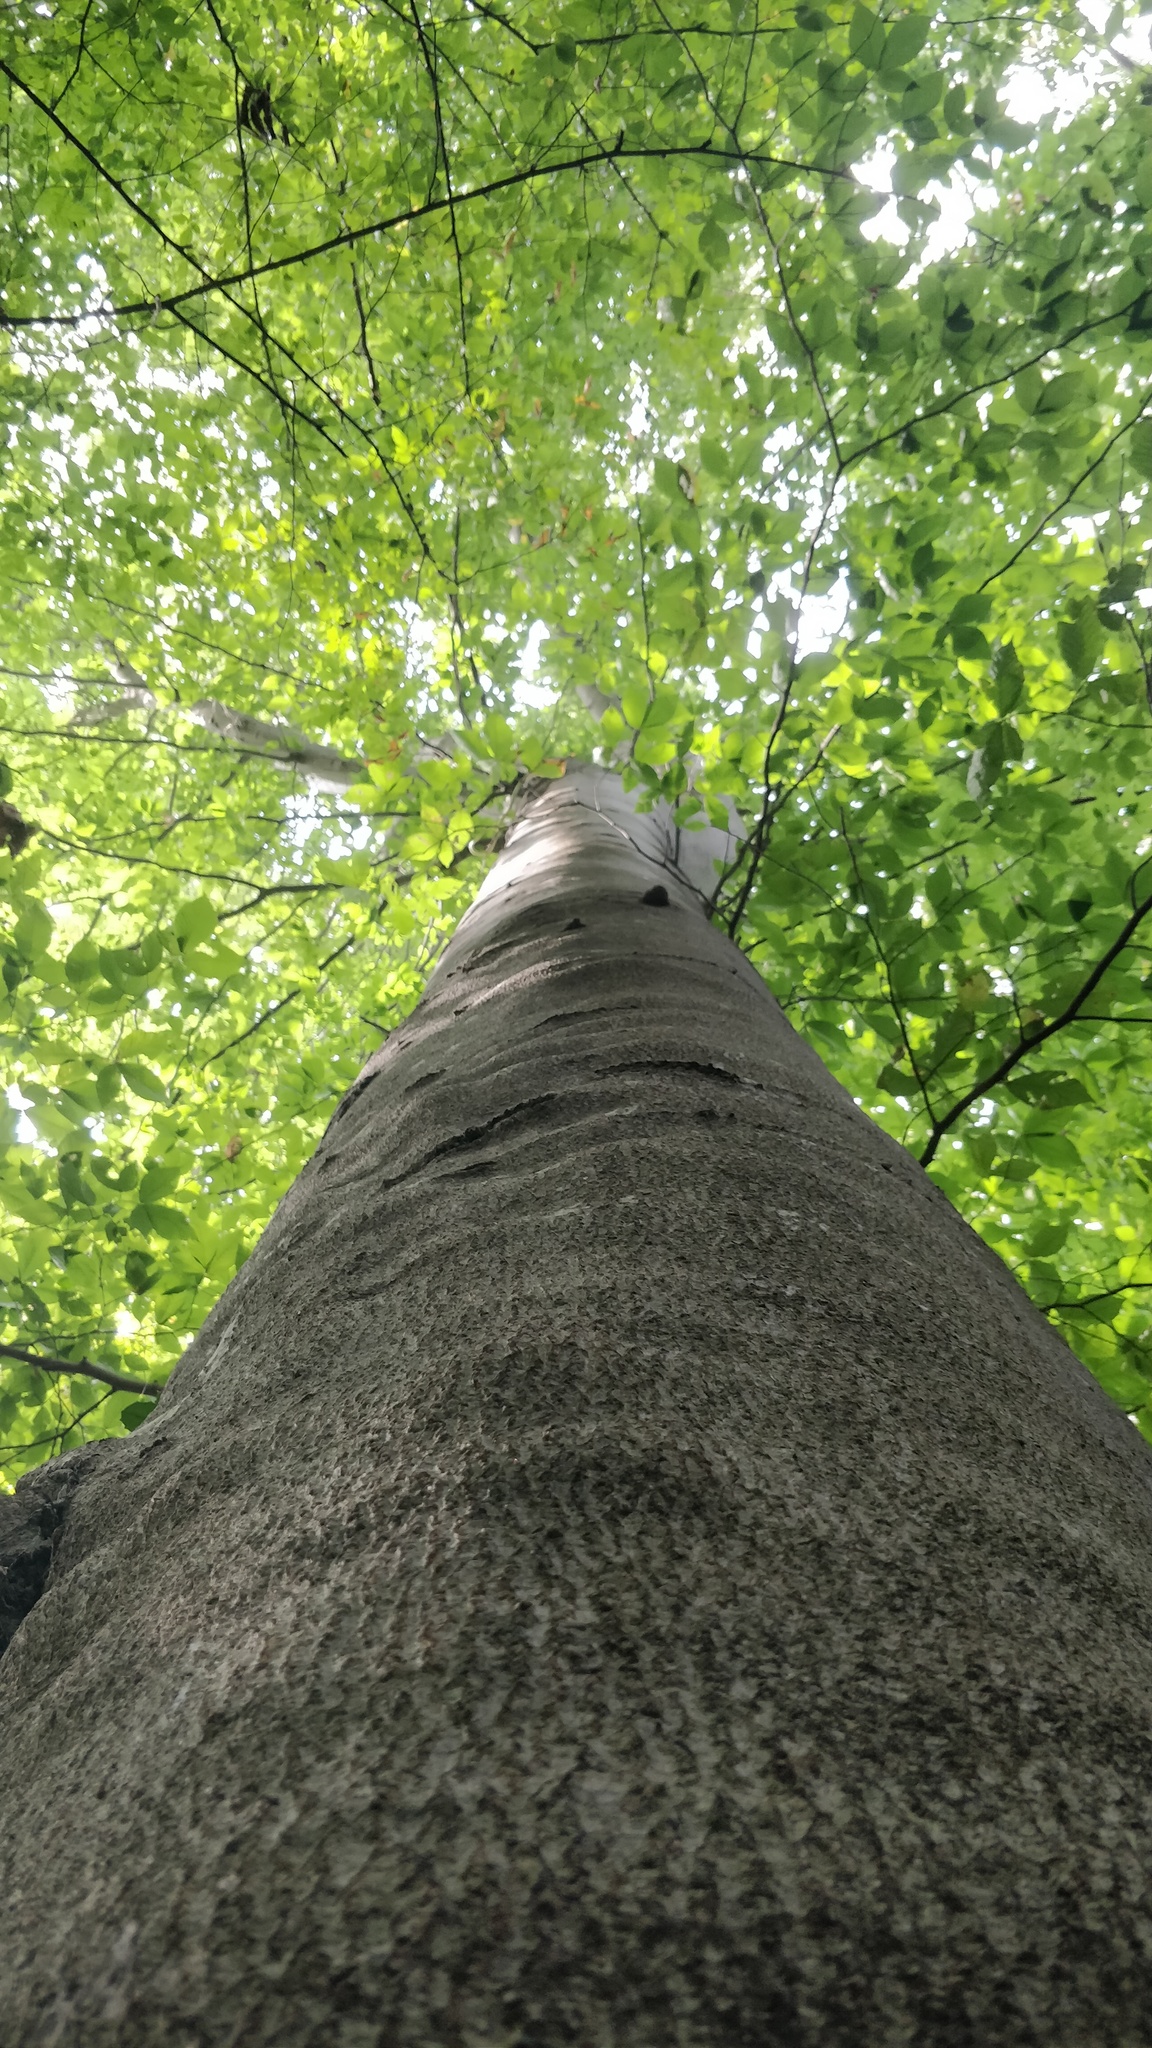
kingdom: Plantae
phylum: Tracheophyta
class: Magnoliopsida
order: Fagales
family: Fagaceae
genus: Fagus
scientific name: Fagus grandifolia
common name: American beech
